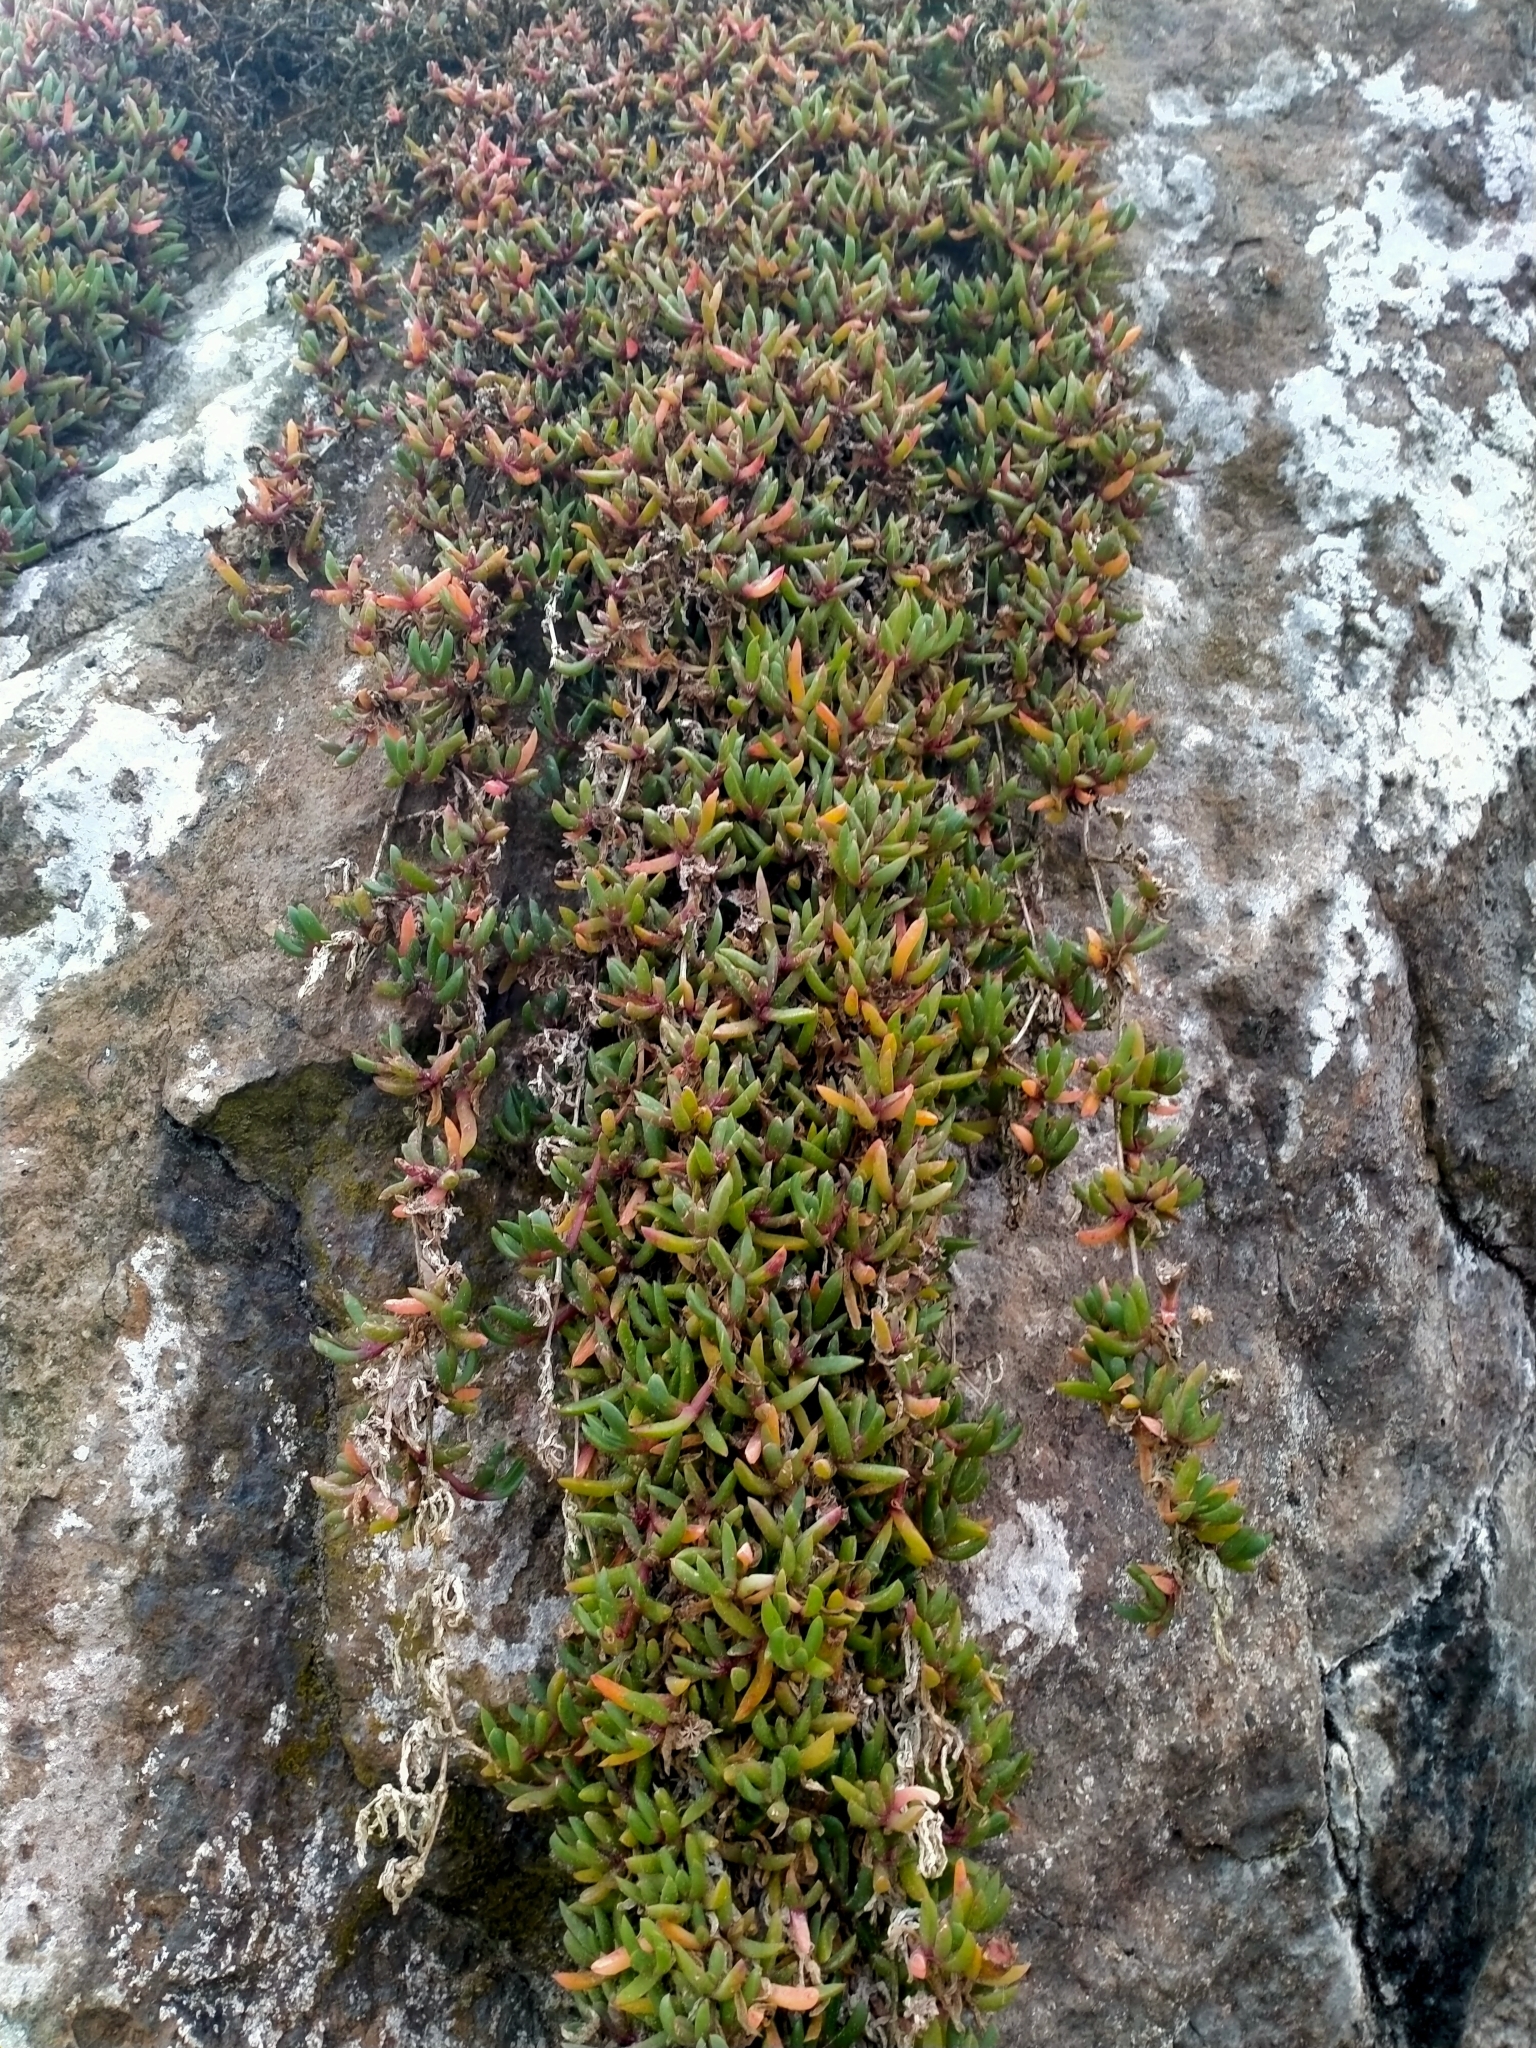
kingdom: Plantae
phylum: Tracheophyta
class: Magnoliopsida
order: Caryophyllales
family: Aizoaceae
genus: Disphyma
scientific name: Disphyma australe
